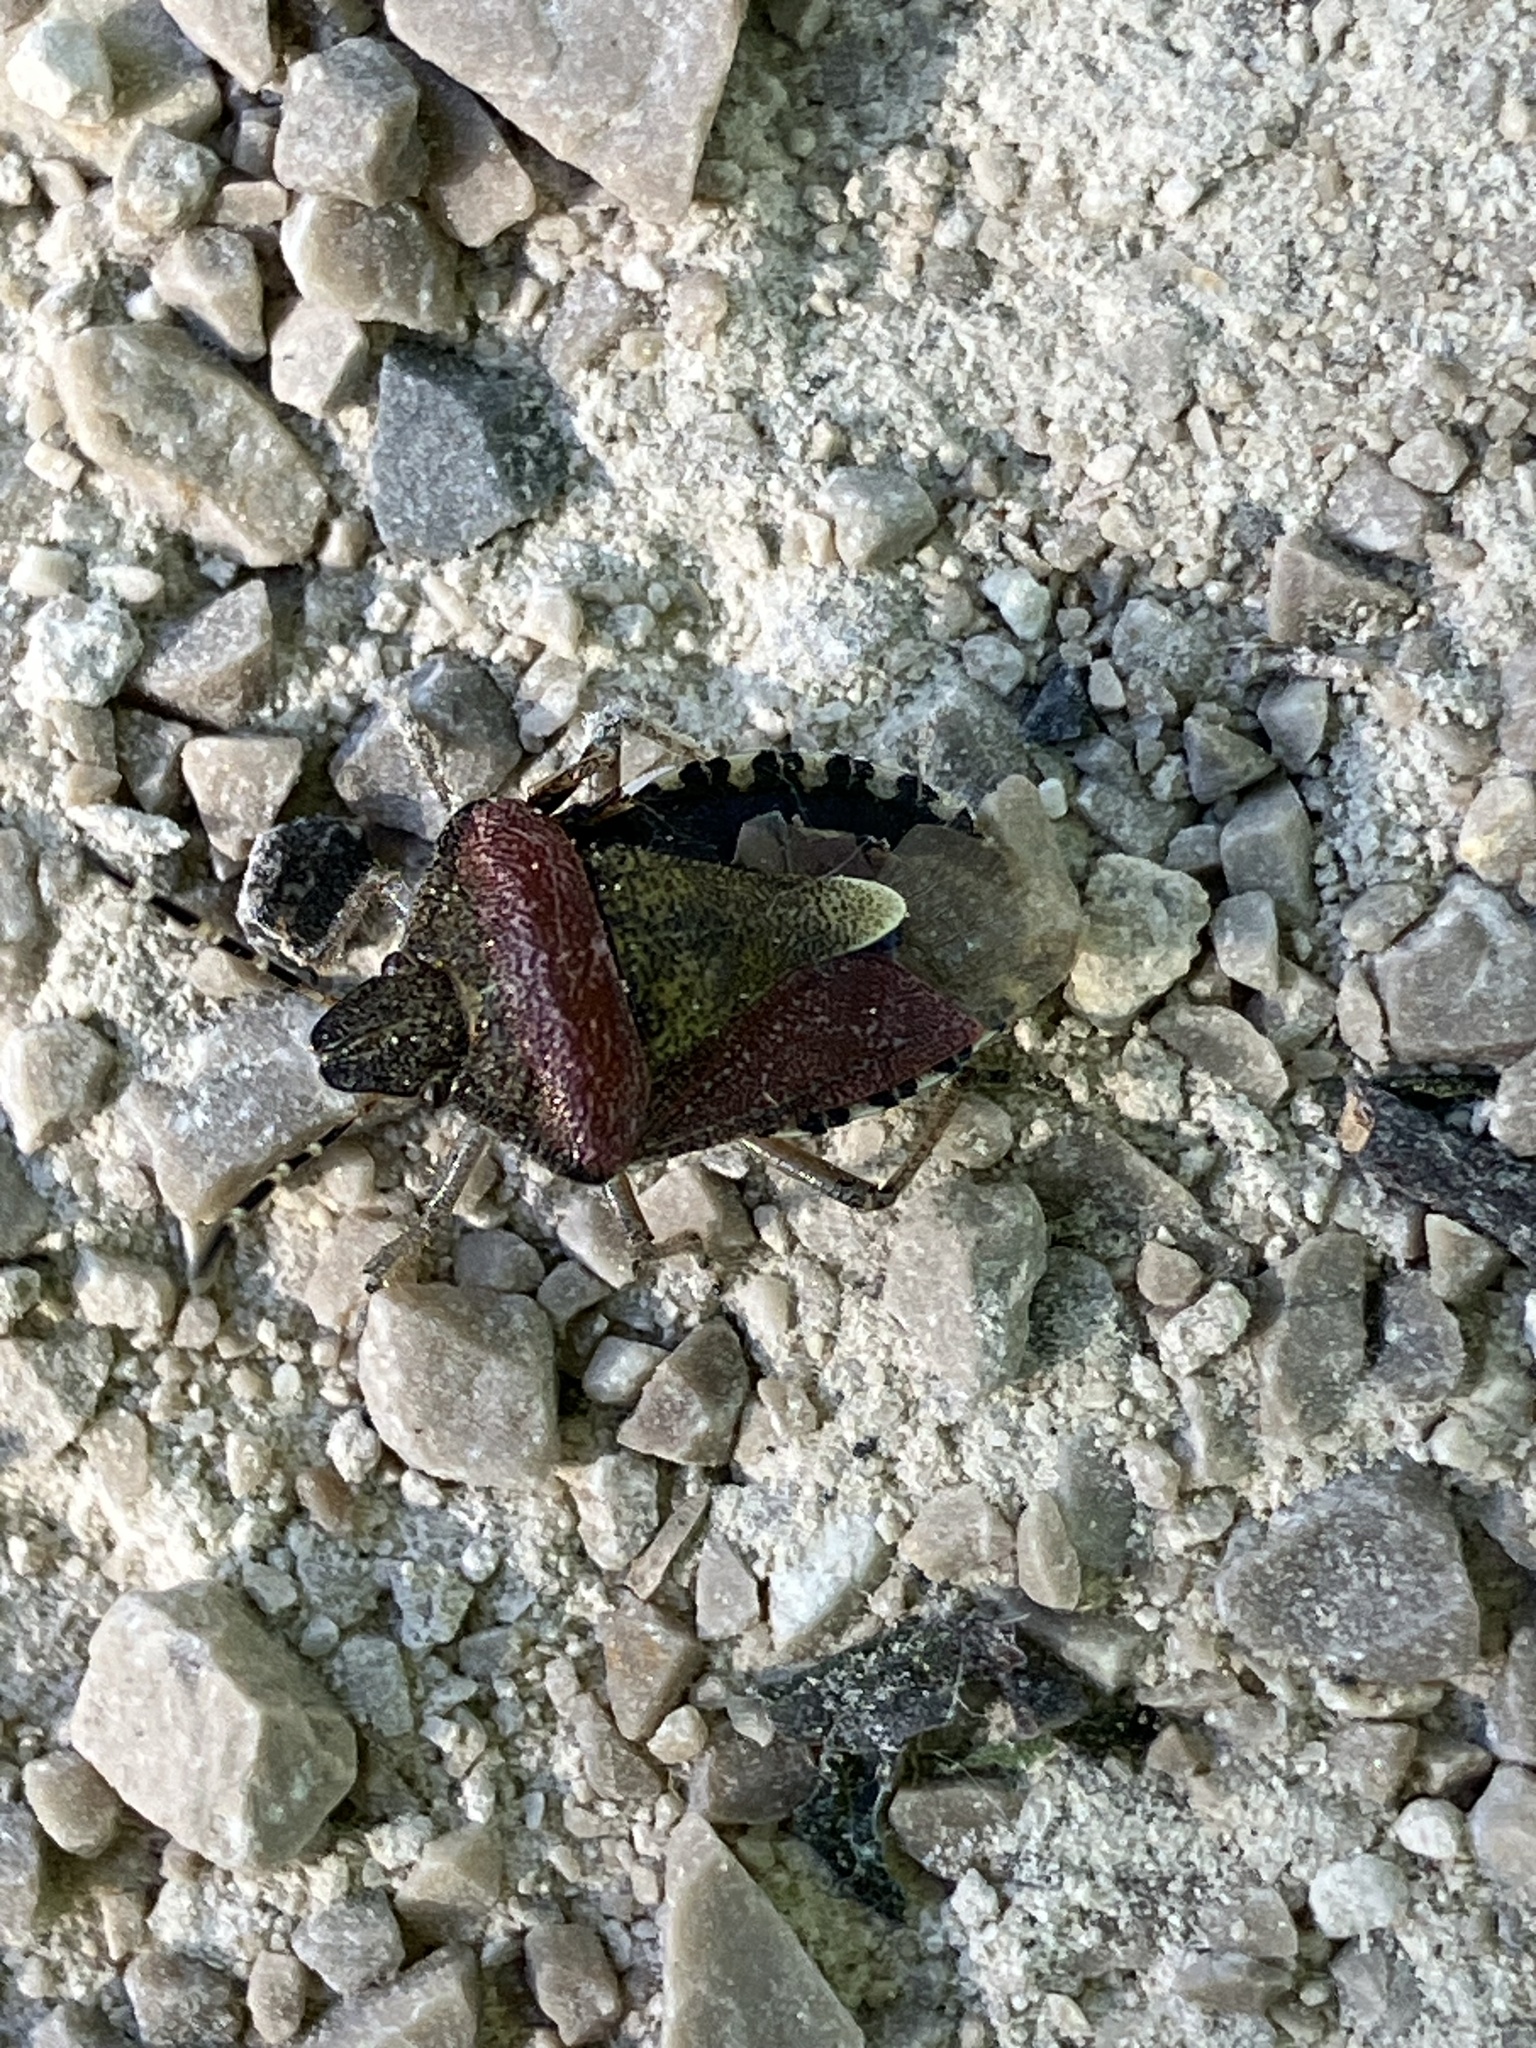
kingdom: Animalia
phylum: Arthropoda
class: Insecta
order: Hemiptera
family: Pentatomidae
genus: Dolycoris
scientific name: Dolycoris baccarum
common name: Sloe bug
